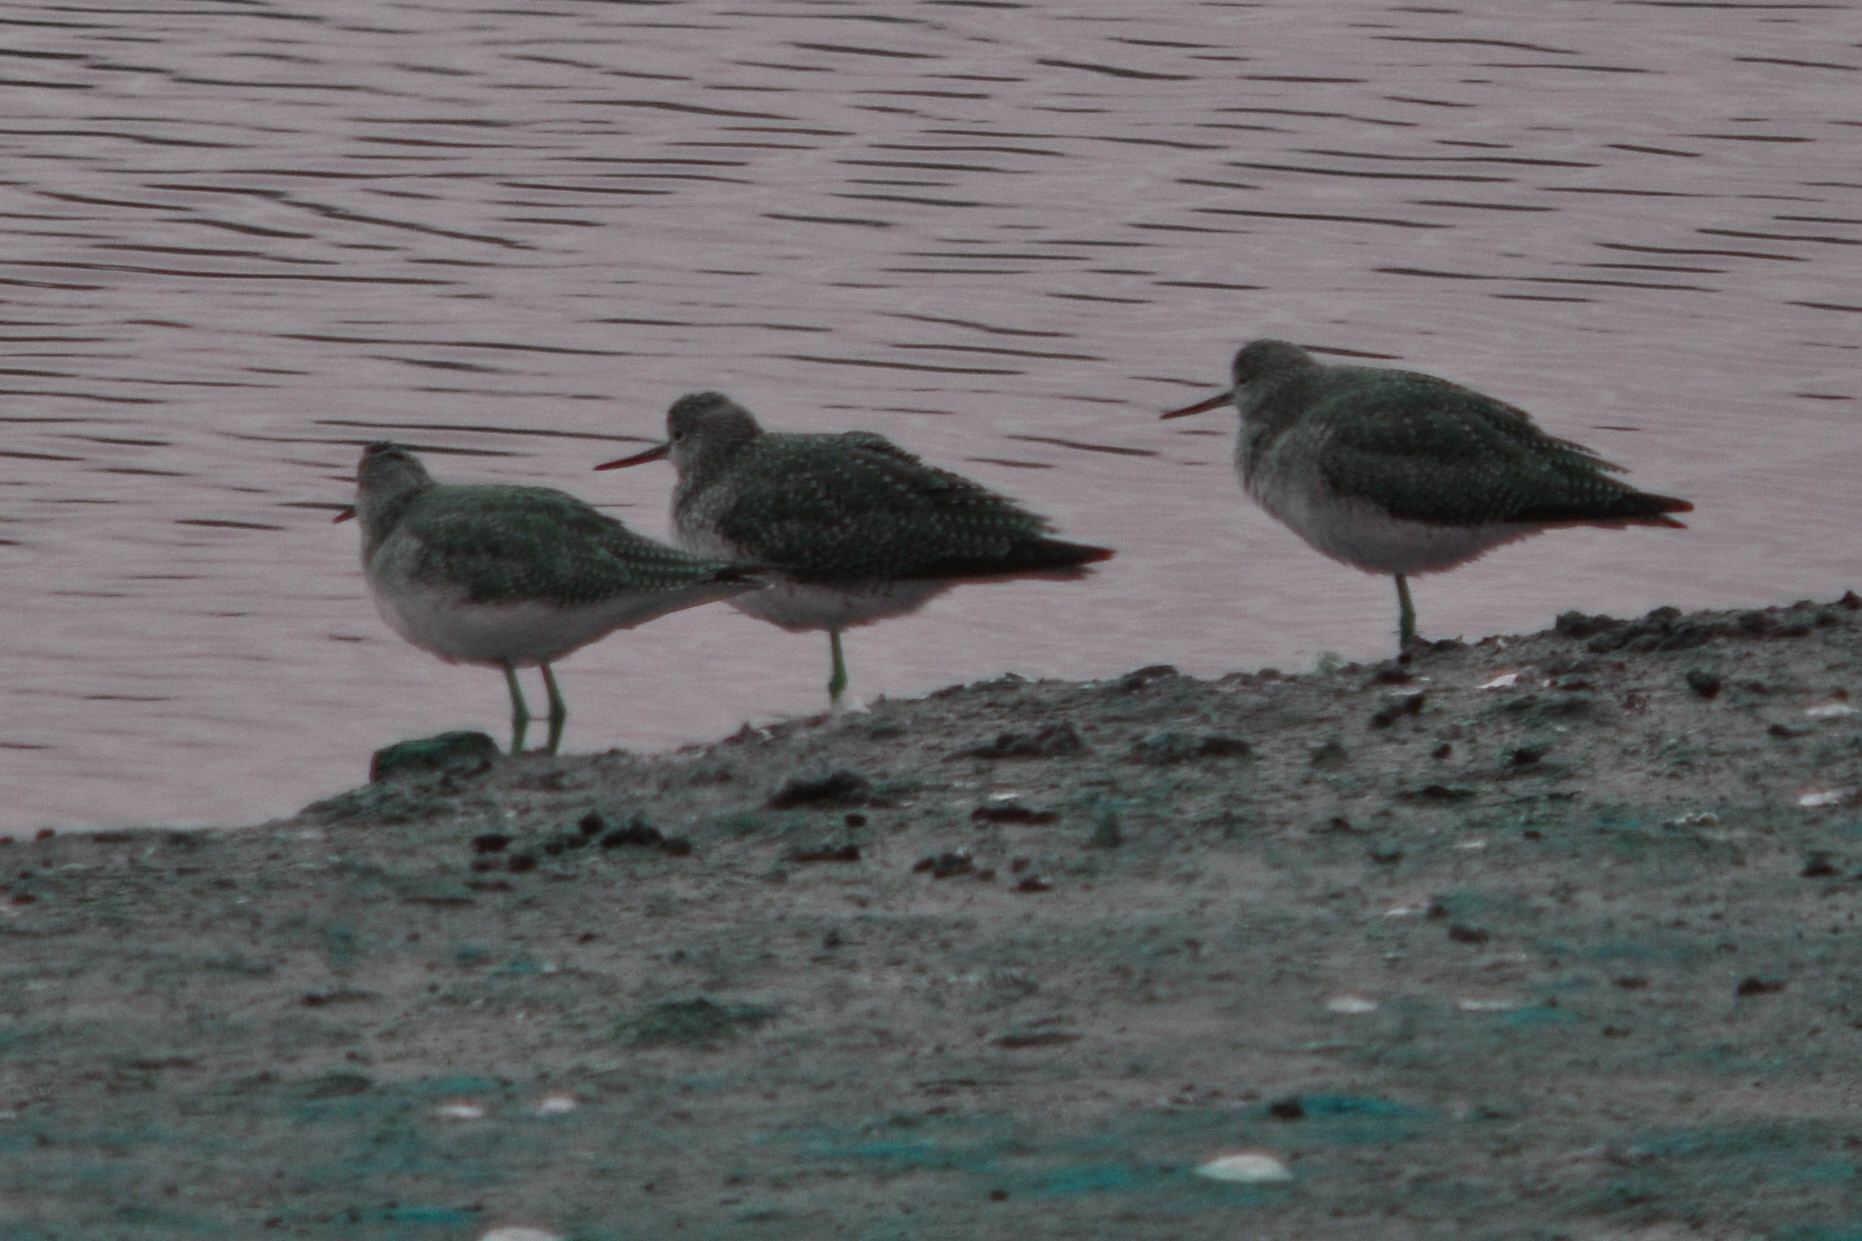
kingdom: Animalia
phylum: Chordata
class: Aves
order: Charadriiformes
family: Scolopacidae
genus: Tringa
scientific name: Tringa melanoleuca
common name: Greater yellowlegs
